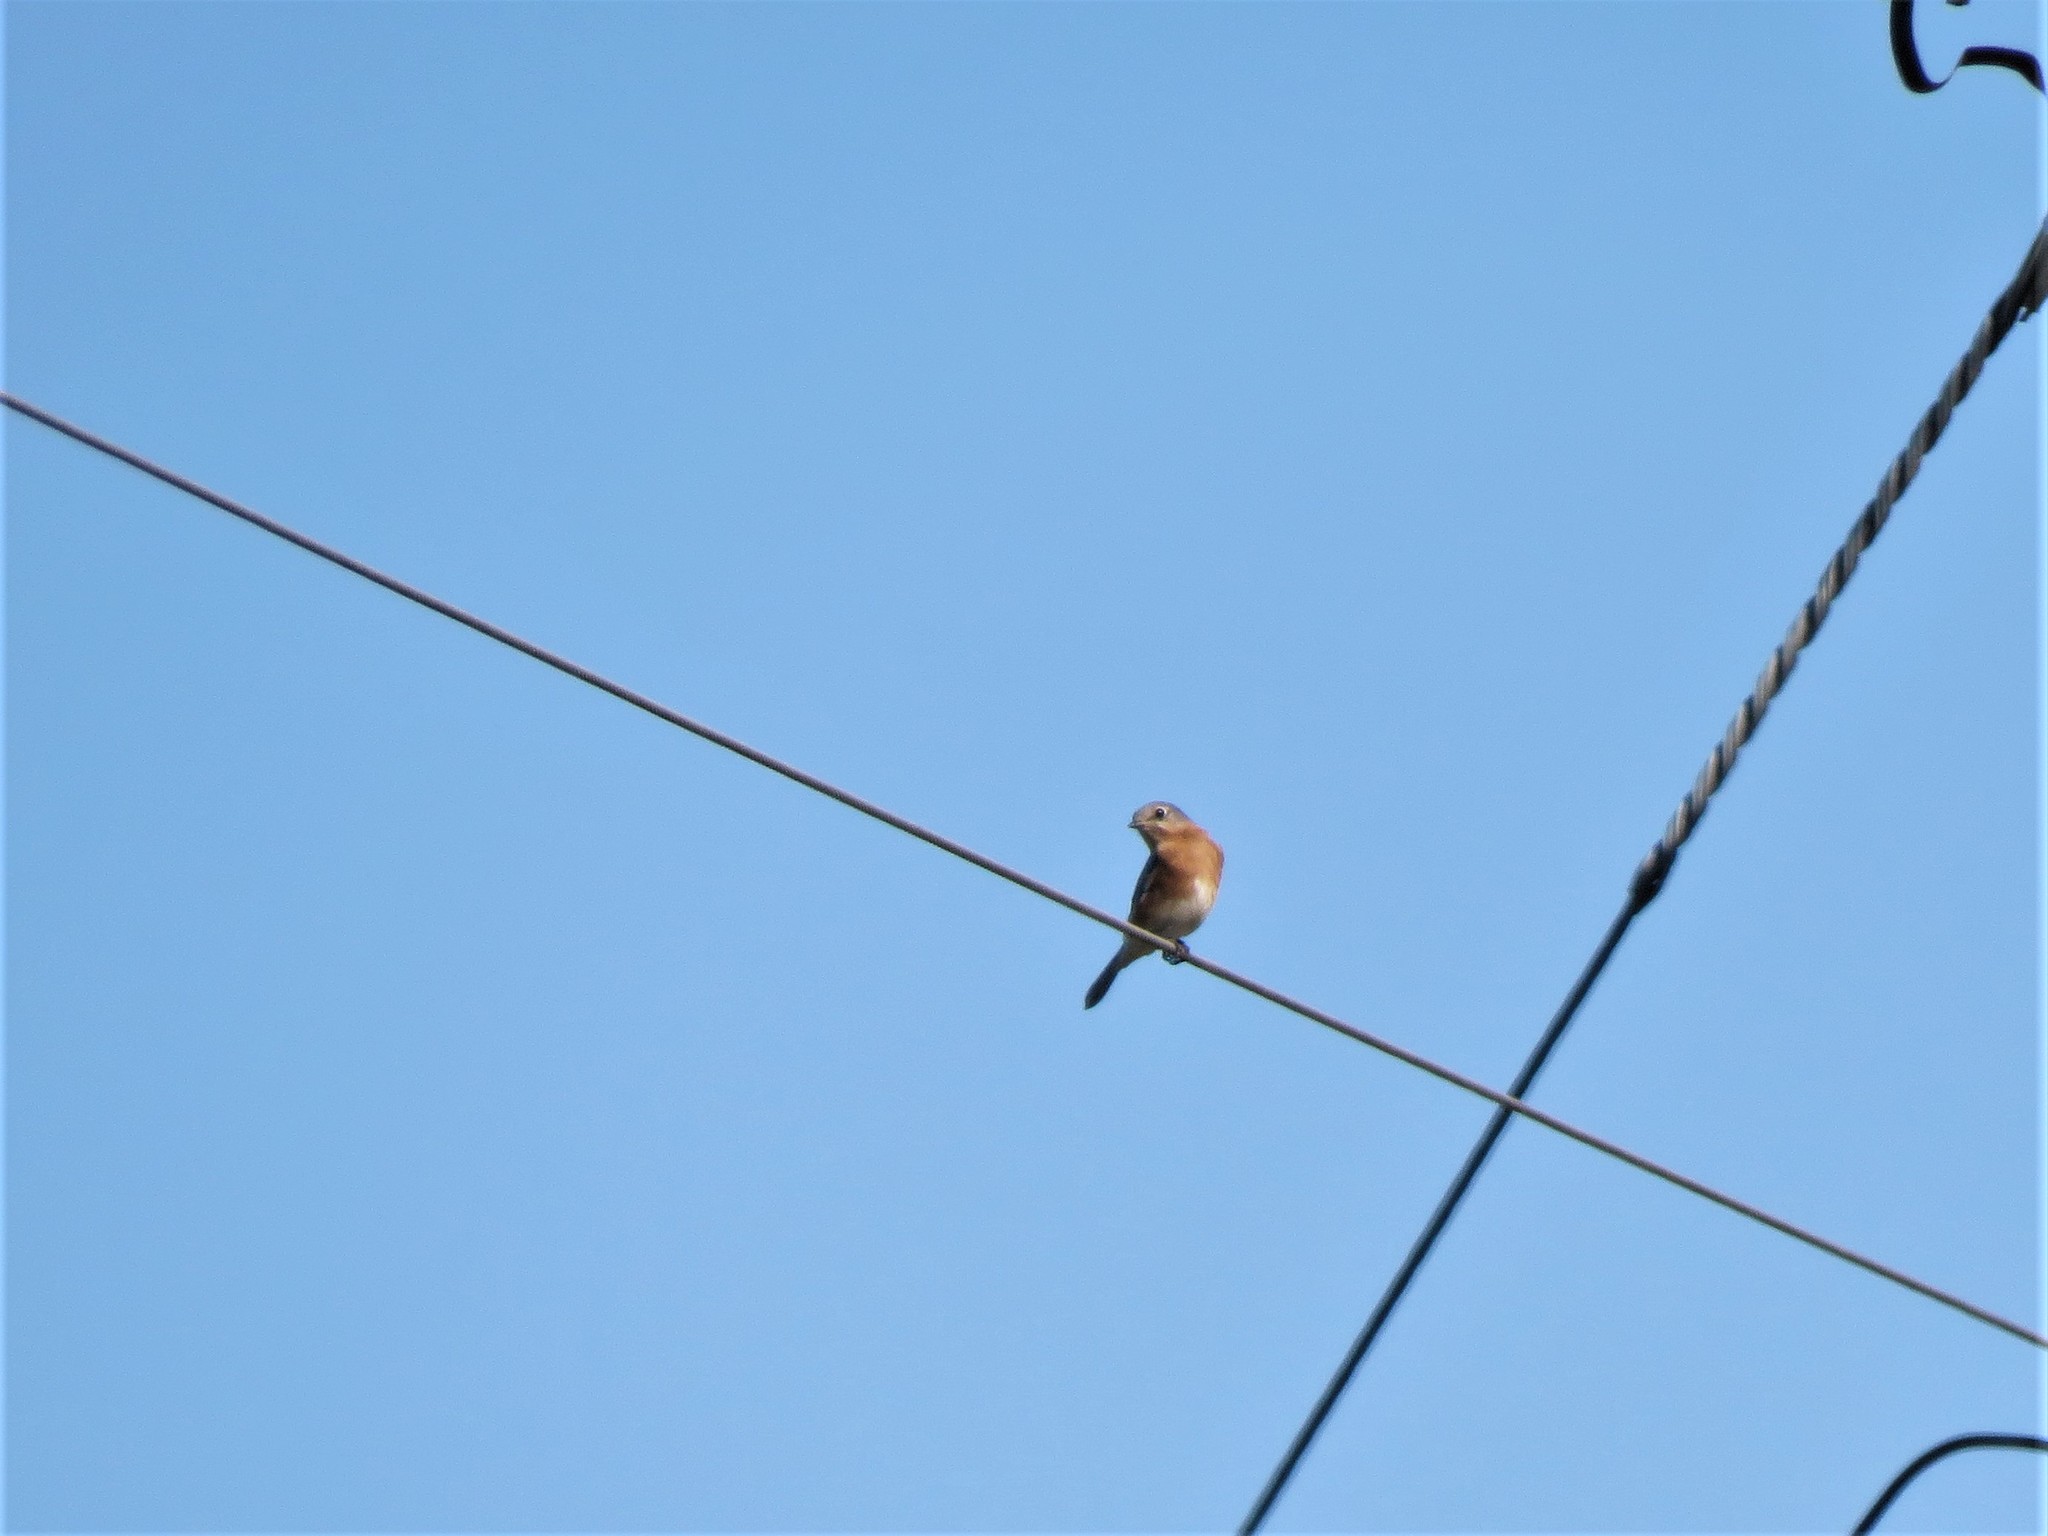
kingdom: Animalia
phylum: Chordata
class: Aves
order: Passeriformes
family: Turdidae
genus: Sialia
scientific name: Sialia sialis
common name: Eastern bluebird
